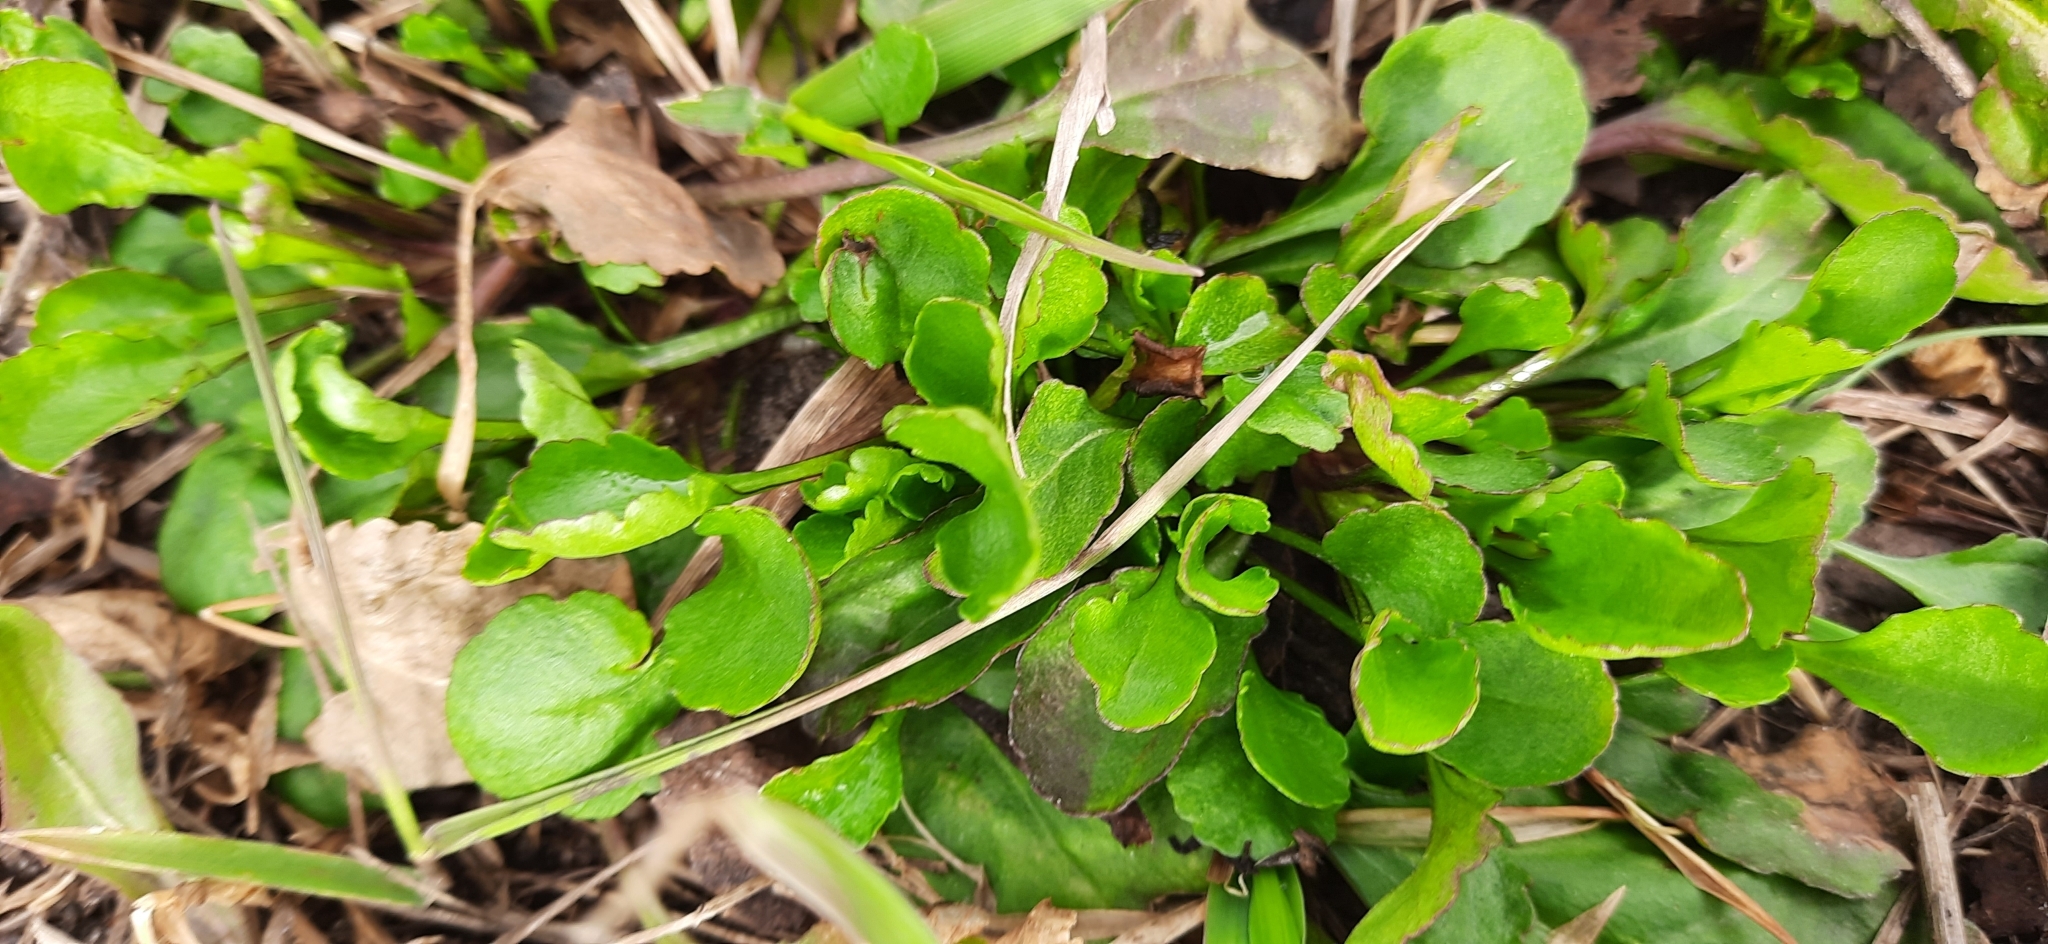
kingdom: Plantae
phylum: Tracheophyta
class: Magnoliopsida
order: Asterales
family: Asteraceae
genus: Leucanthemum
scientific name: Leucanthemum ircutianum
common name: Daisy
